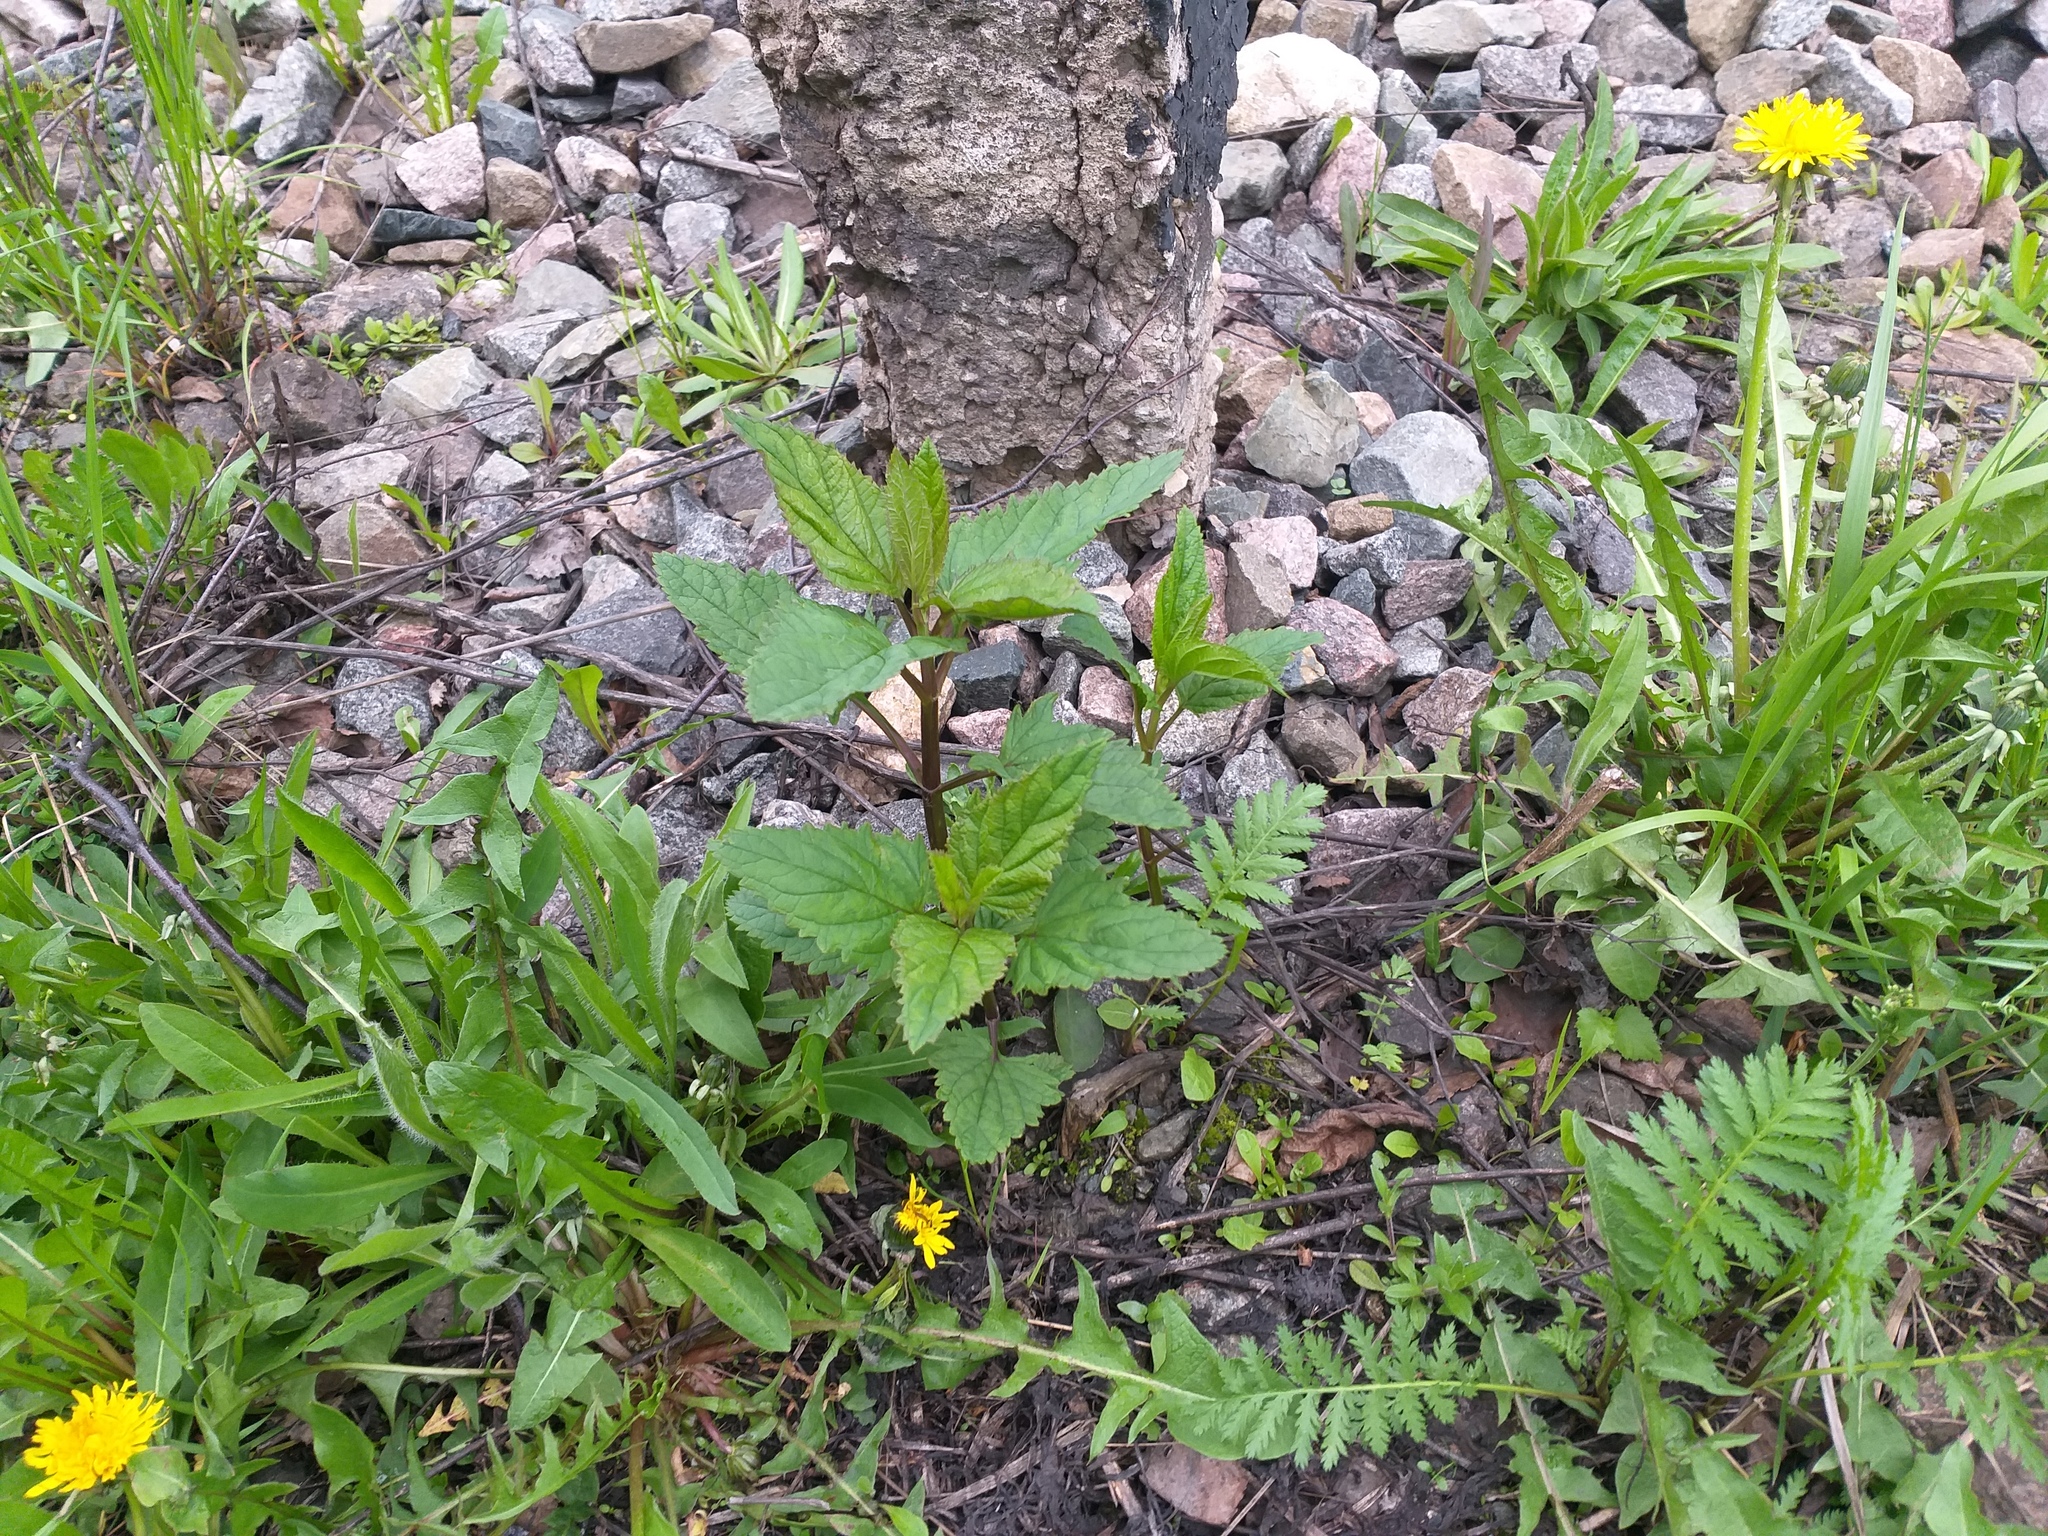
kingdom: Plantae
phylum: Tracheophyta
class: Magnoliopsida
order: Lamiales
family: Scrophulariaceae
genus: Scrophularia
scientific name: Scrophularia nodosa
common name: Common figwort
